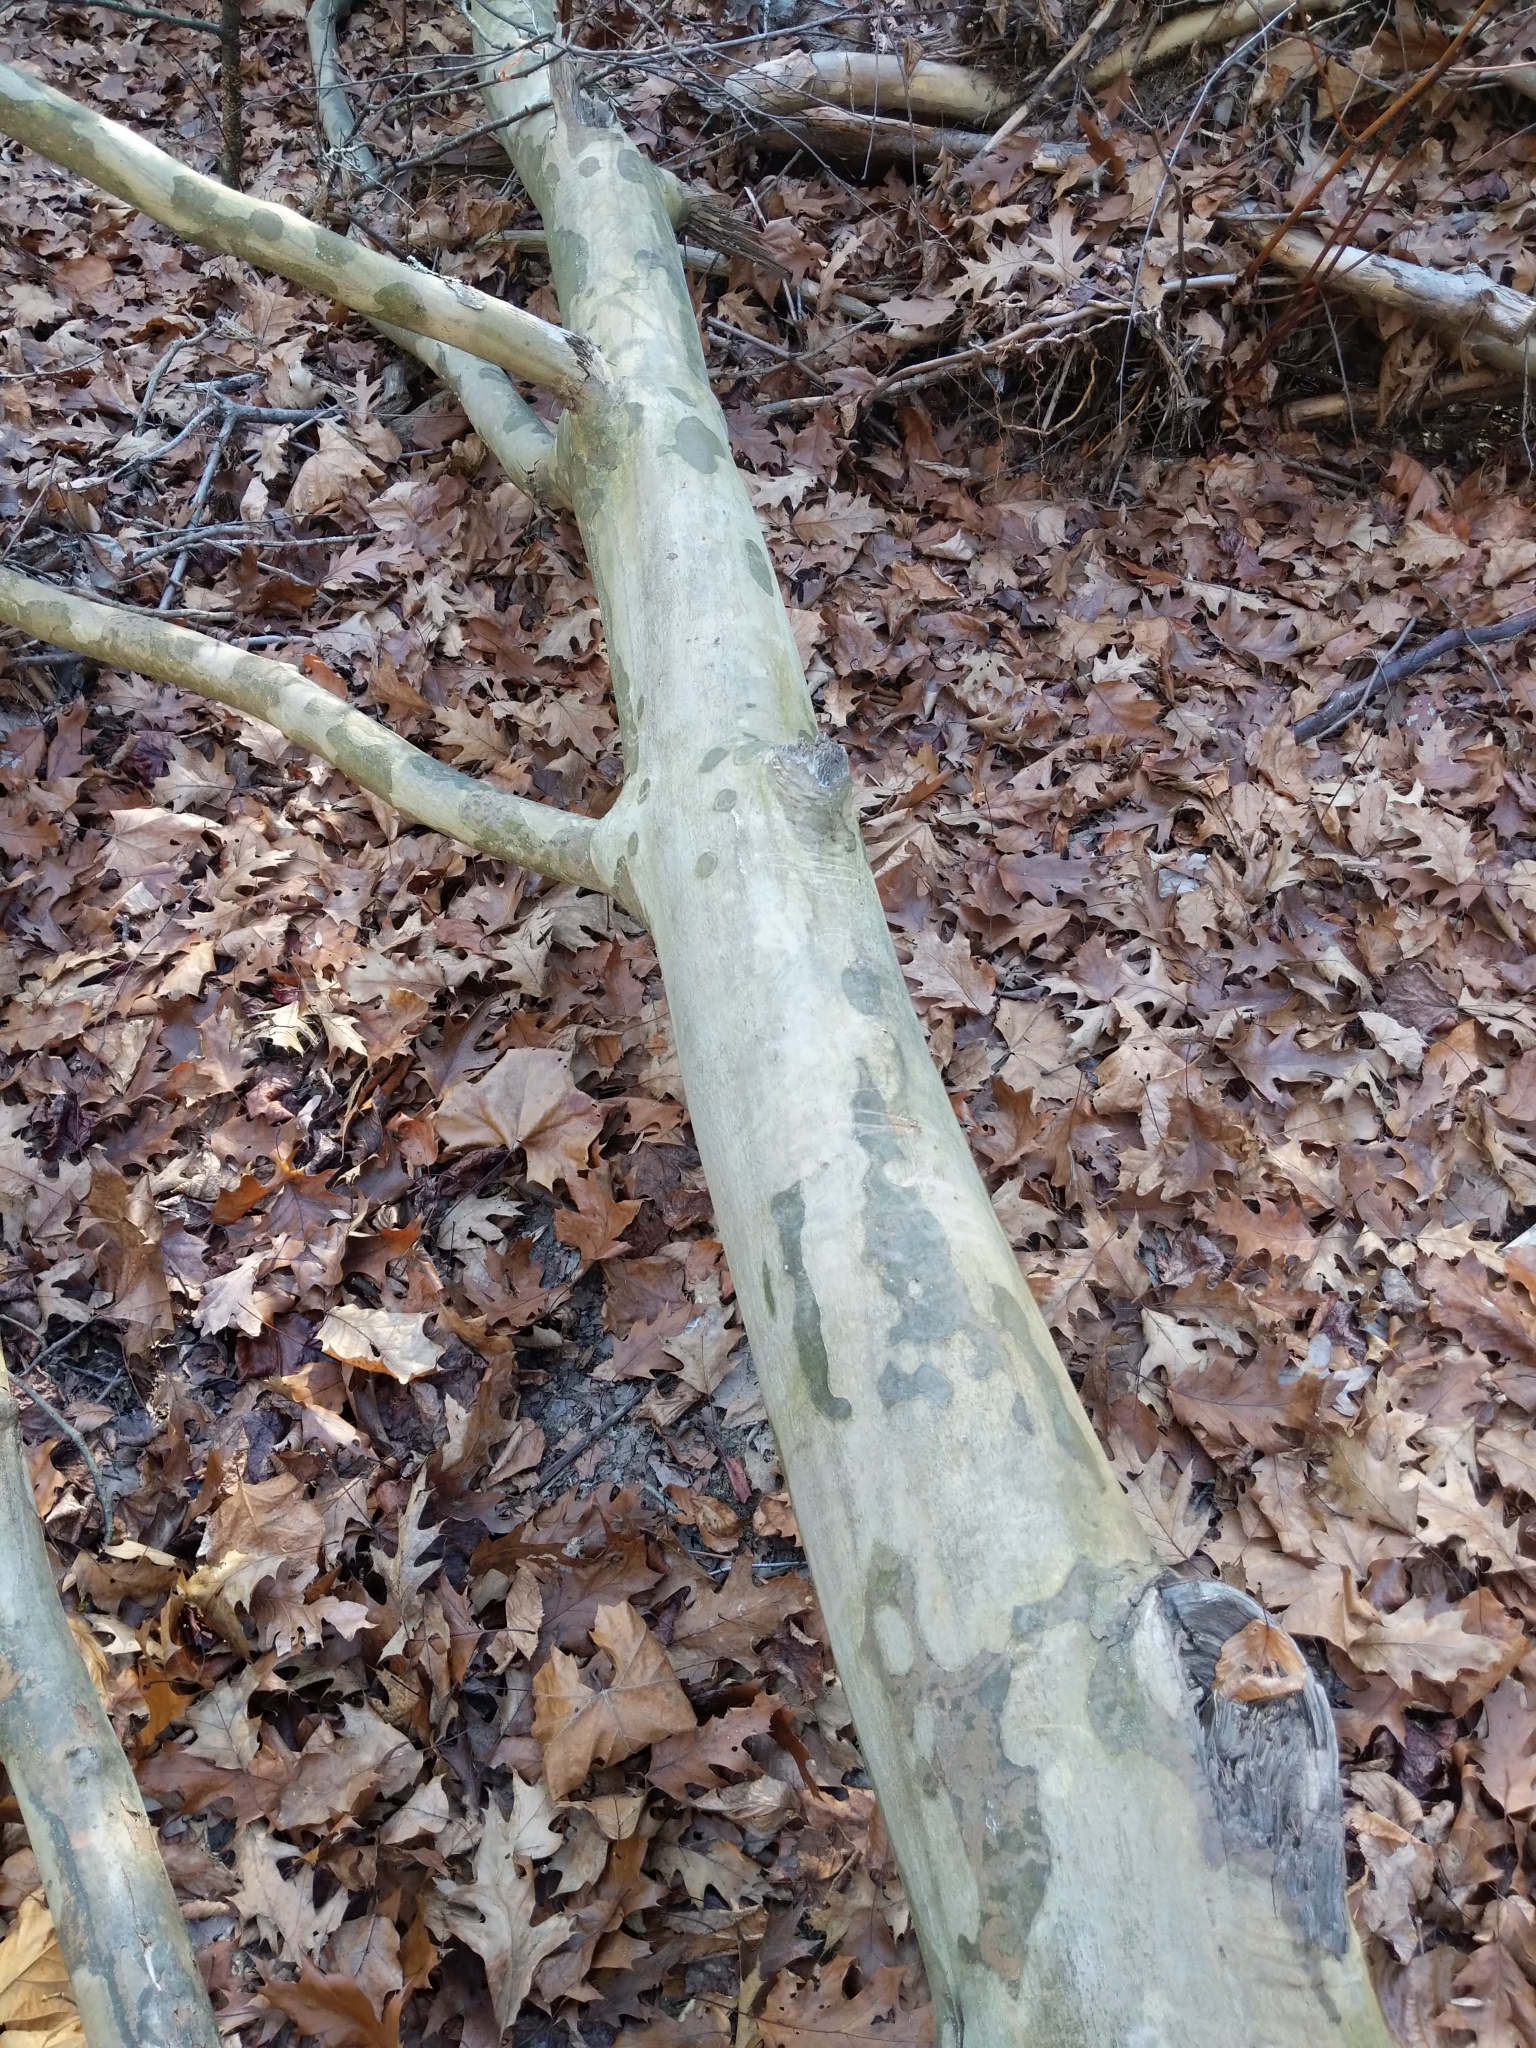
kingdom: Plantae
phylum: Tracheophyta
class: Magnoliopsida
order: Proteales
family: Platanaceae
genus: Platanus
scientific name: Platanus occidentalis
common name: American sycamore
